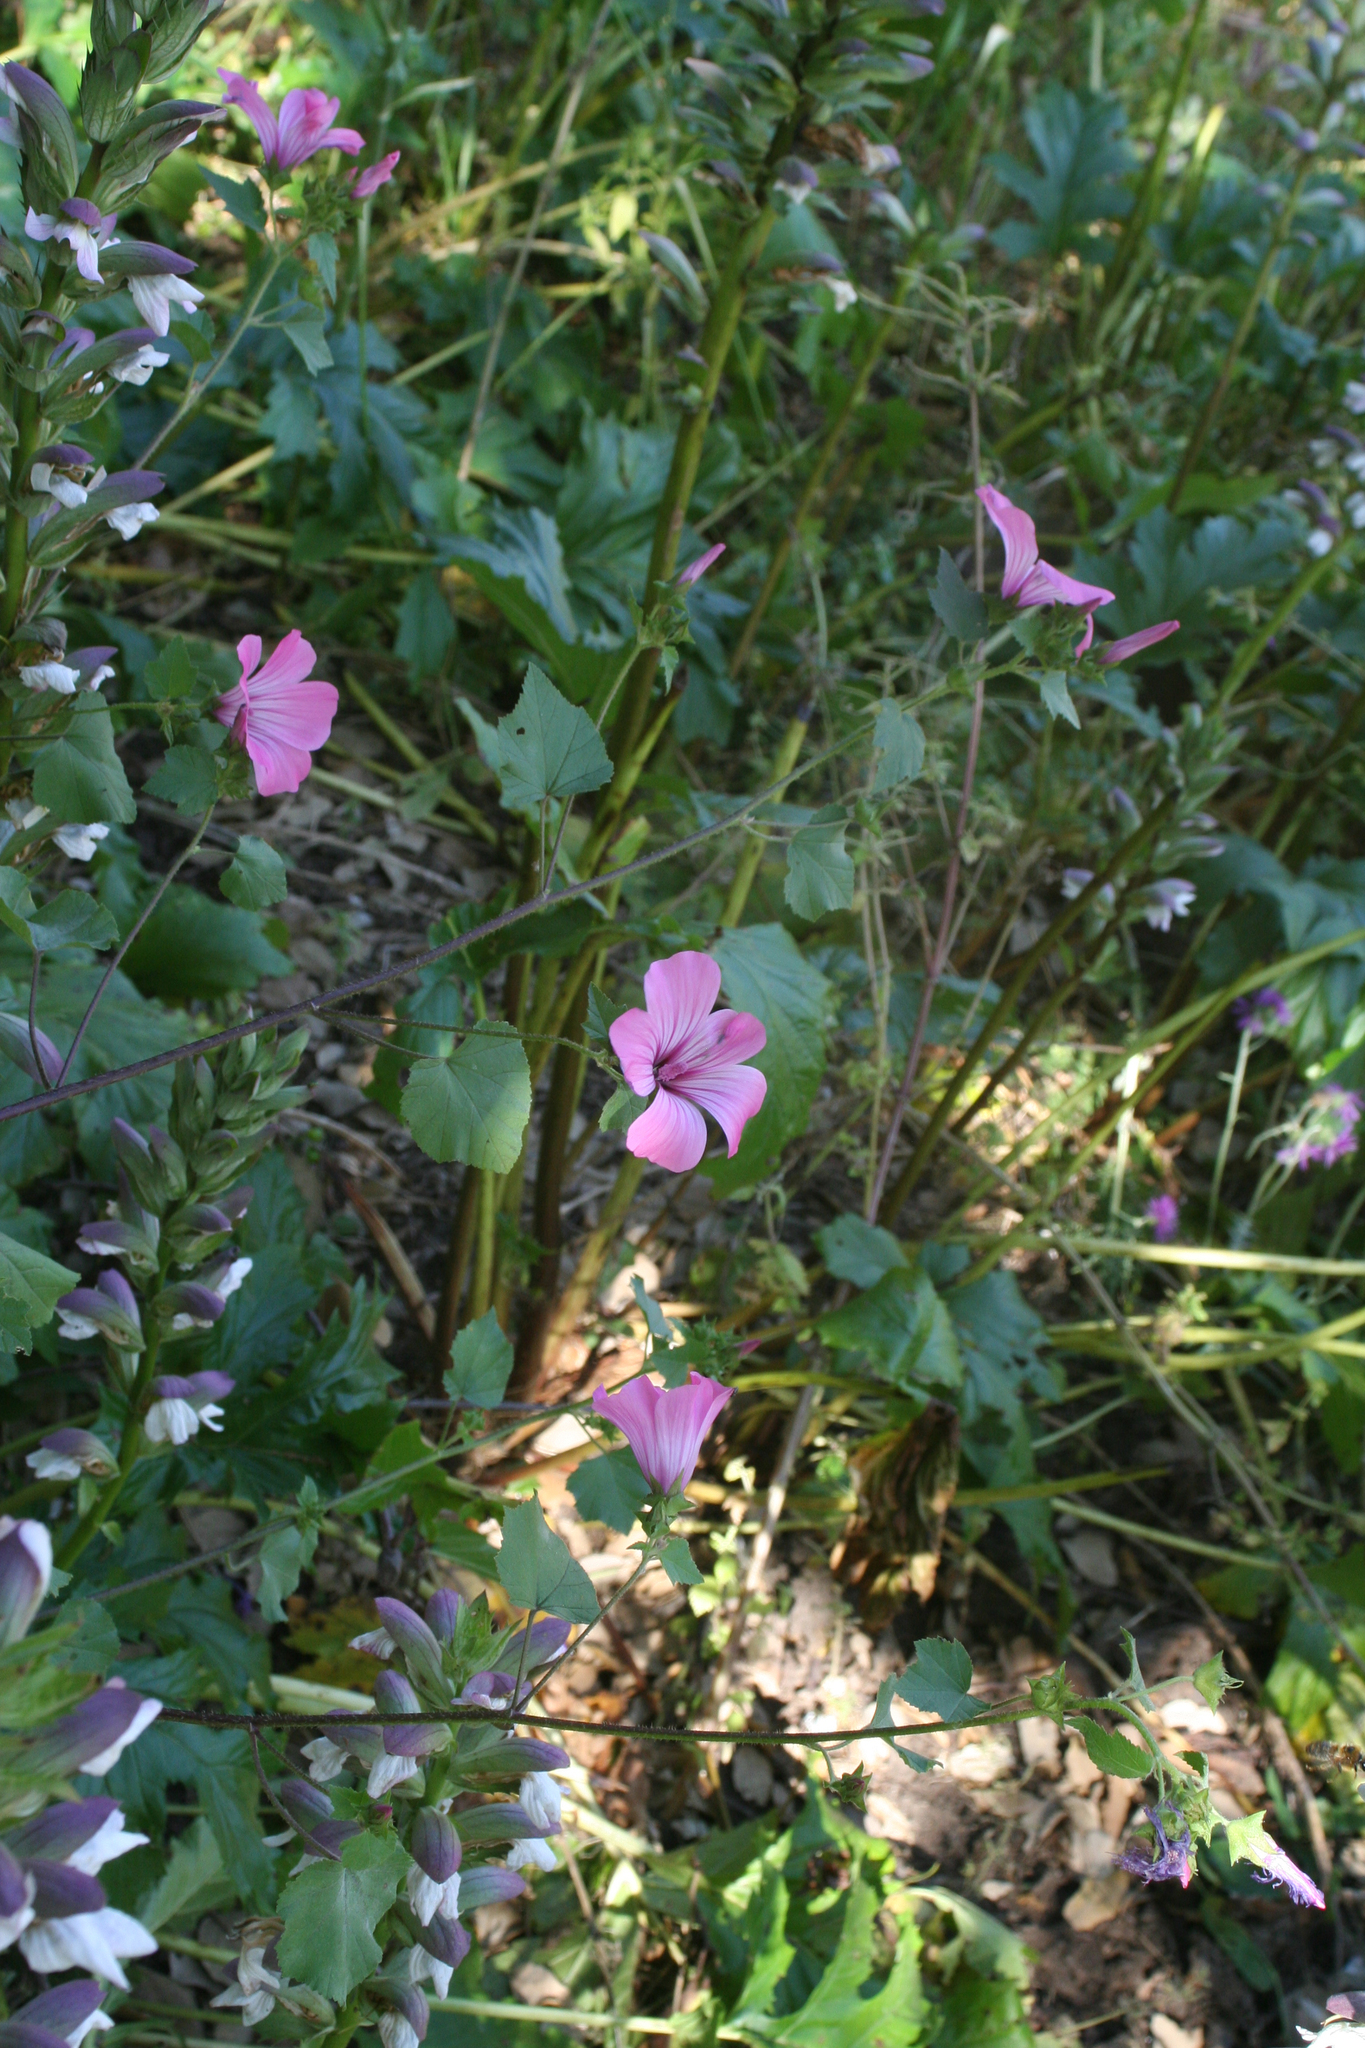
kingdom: Plantae
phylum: Tracheophyta
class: Magnoliopsida
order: Malvales
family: Malvaceae
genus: Malva
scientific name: Malva trimestris
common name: Royal mallow
